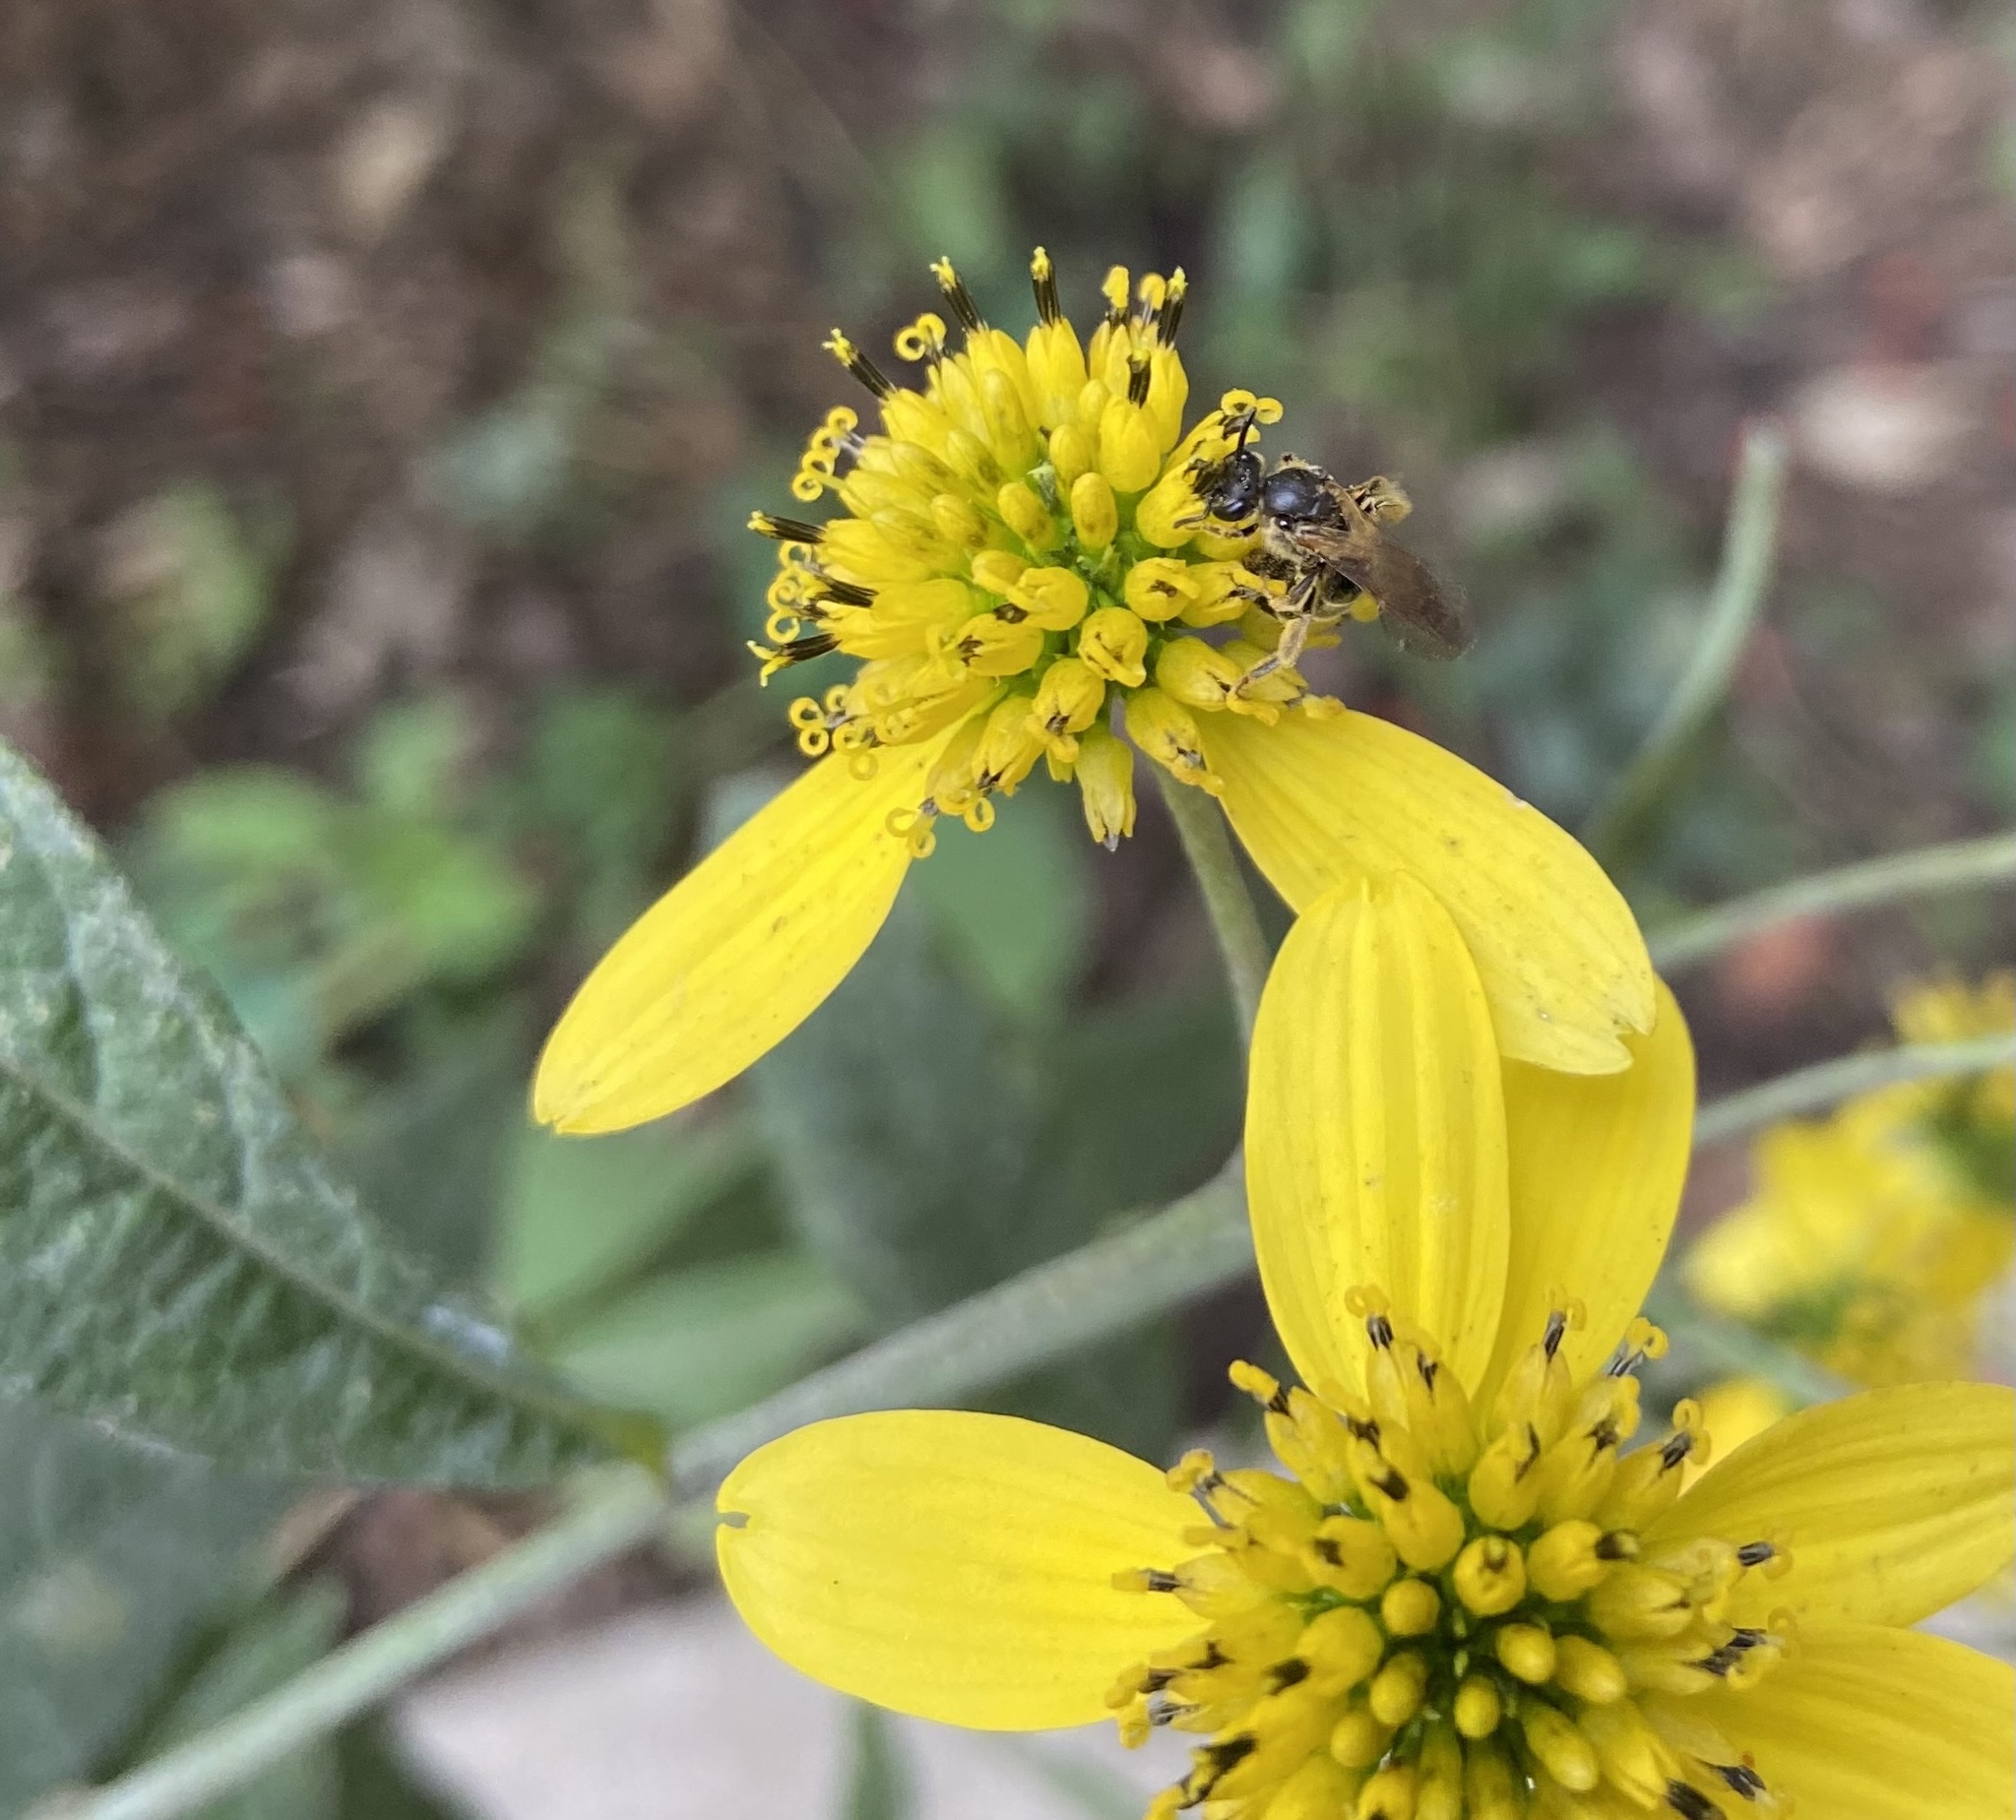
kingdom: Plantae
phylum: Tracheophyta
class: Magnoliopsida
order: Asterales
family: Asteraceae
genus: Verbesina
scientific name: Verbesina alternifolia
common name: Wingstem
